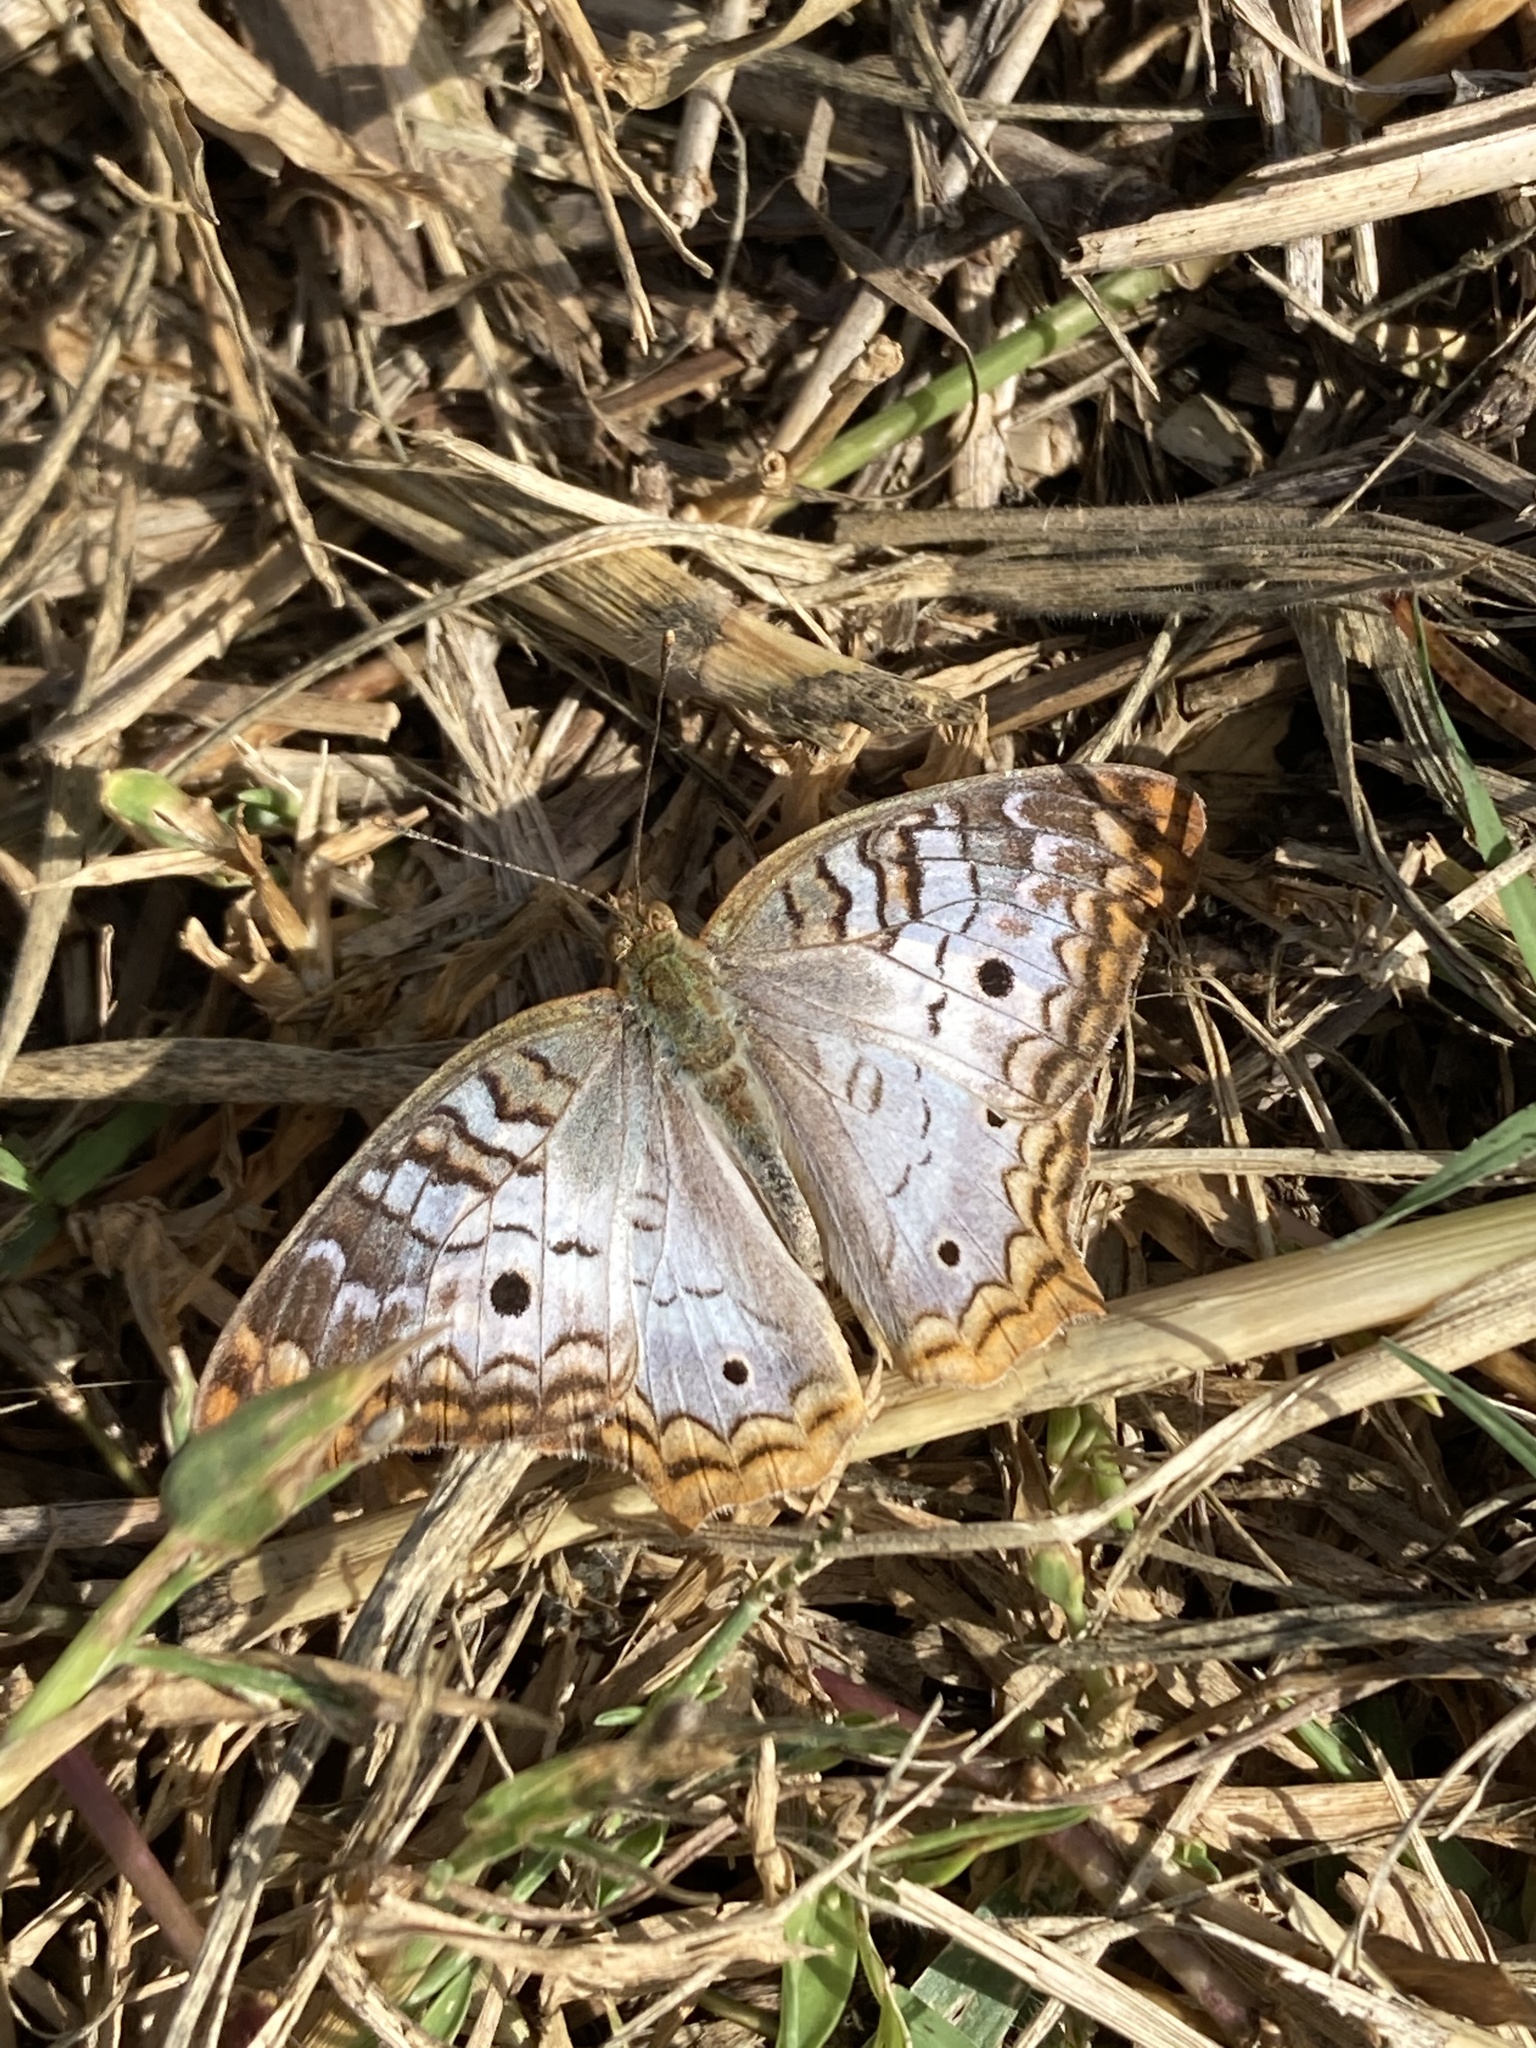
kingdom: Animalia
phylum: Arthropoda
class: Insecta
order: Lepidoptera
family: Nymphalidae
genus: Anartia
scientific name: Anartia jatrophae
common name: White peacock
